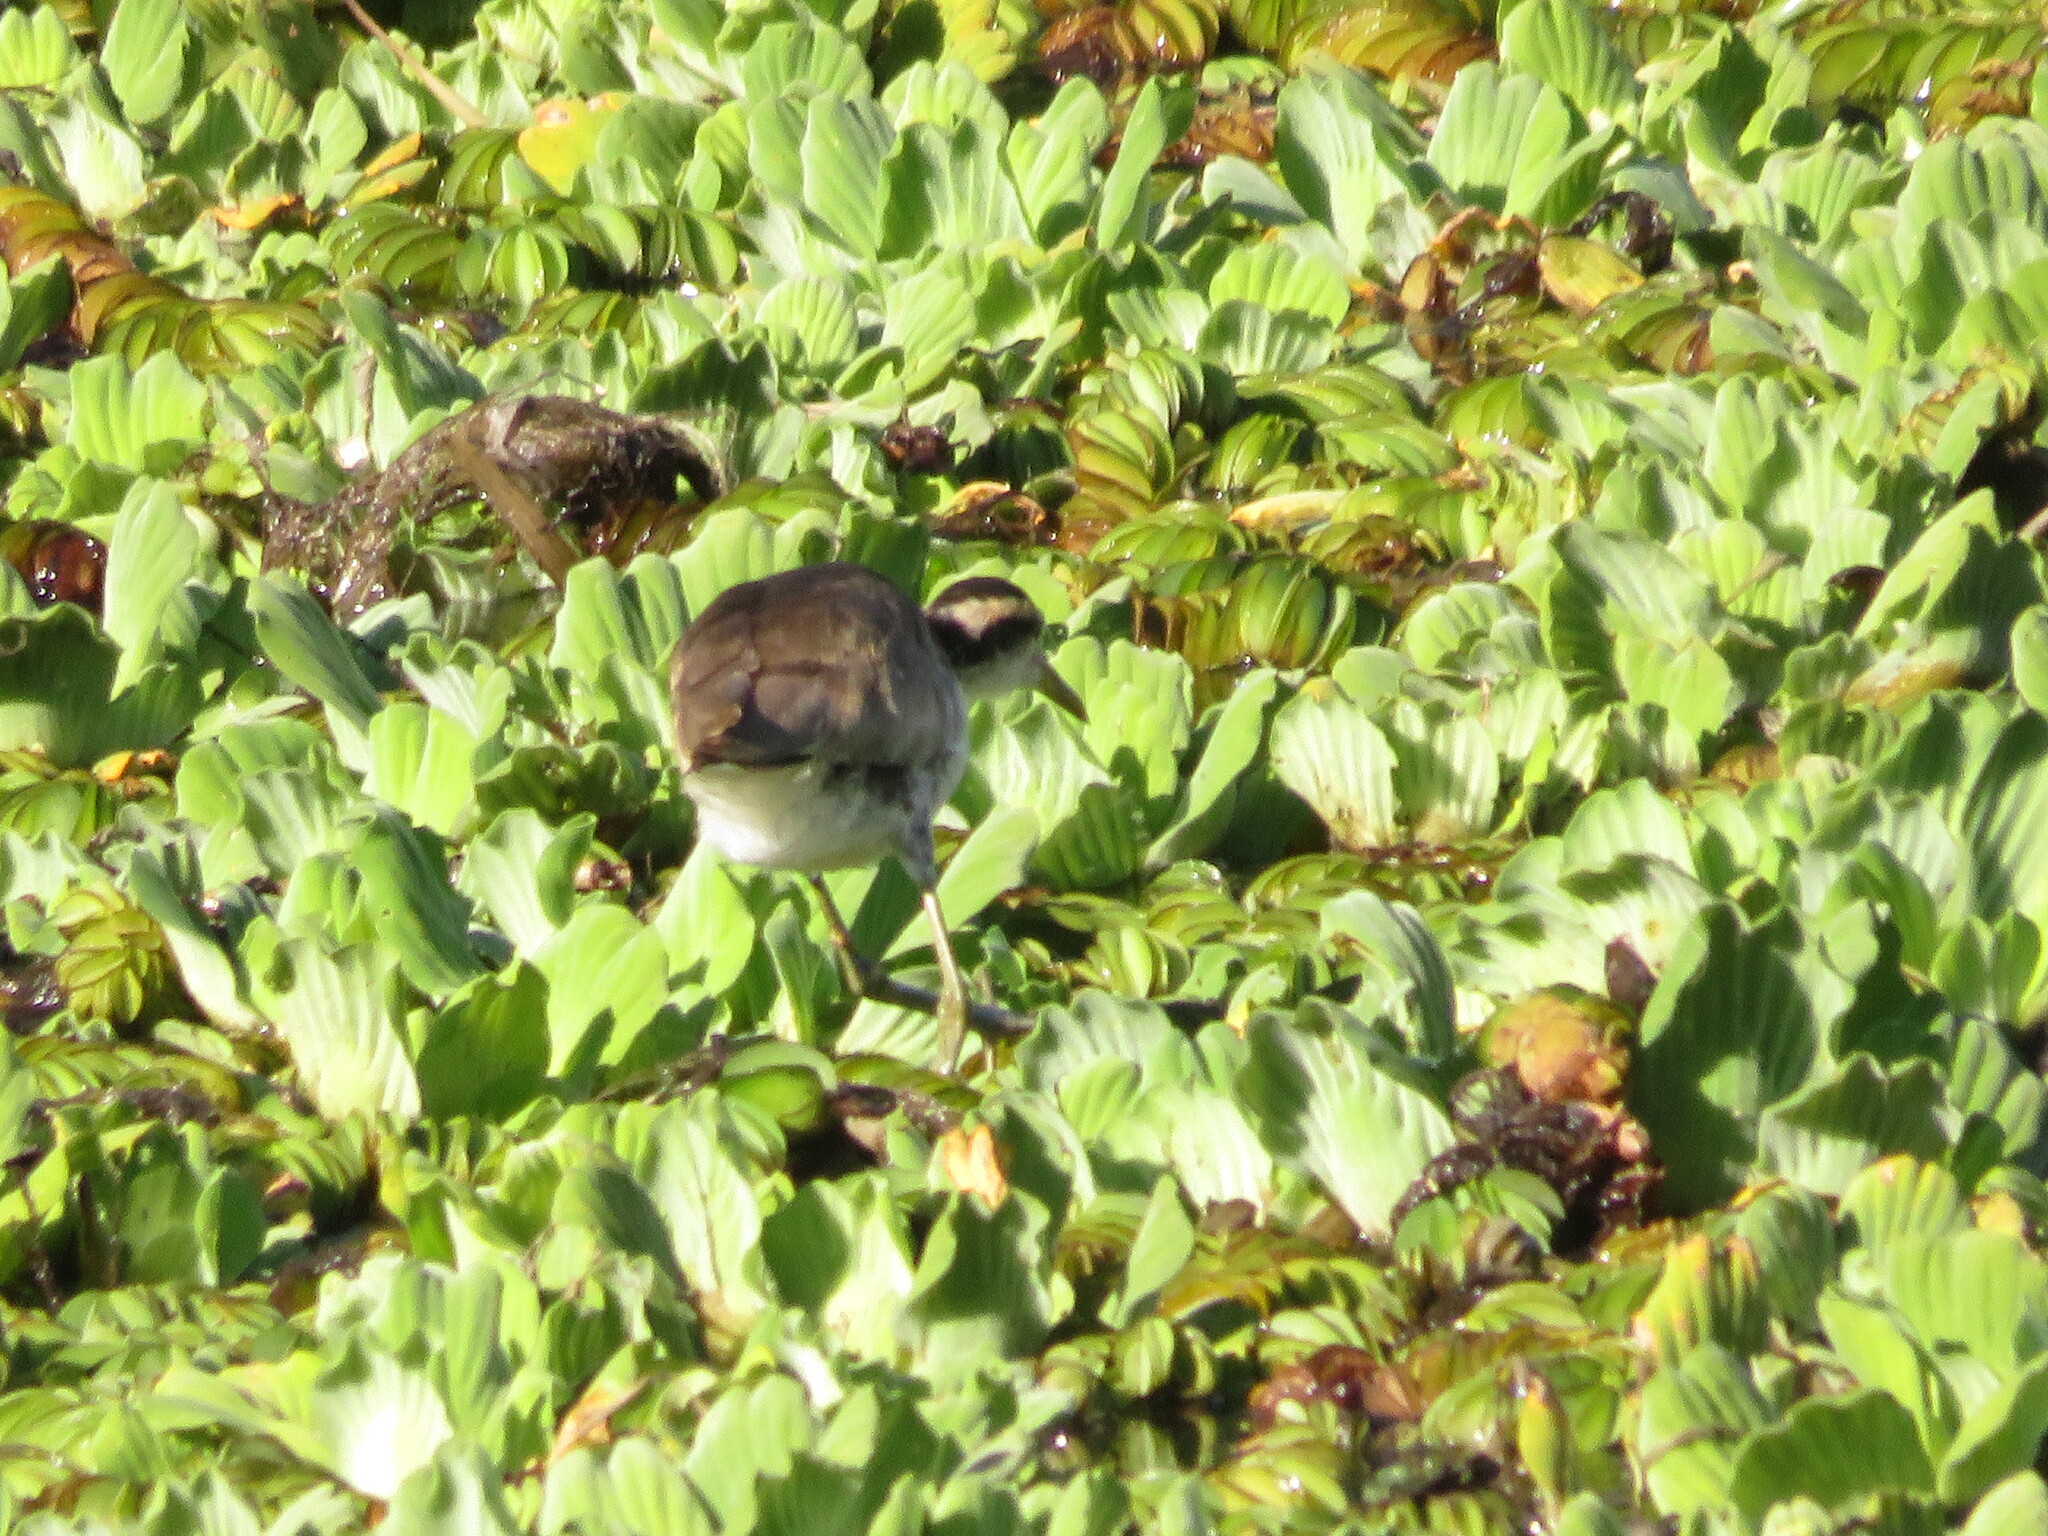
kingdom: Animalia
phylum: Chordata
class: Aves
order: Charadriiformes
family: Jacanidae
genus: Jacana
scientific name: Jacana jacana
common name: Wattled jacana
